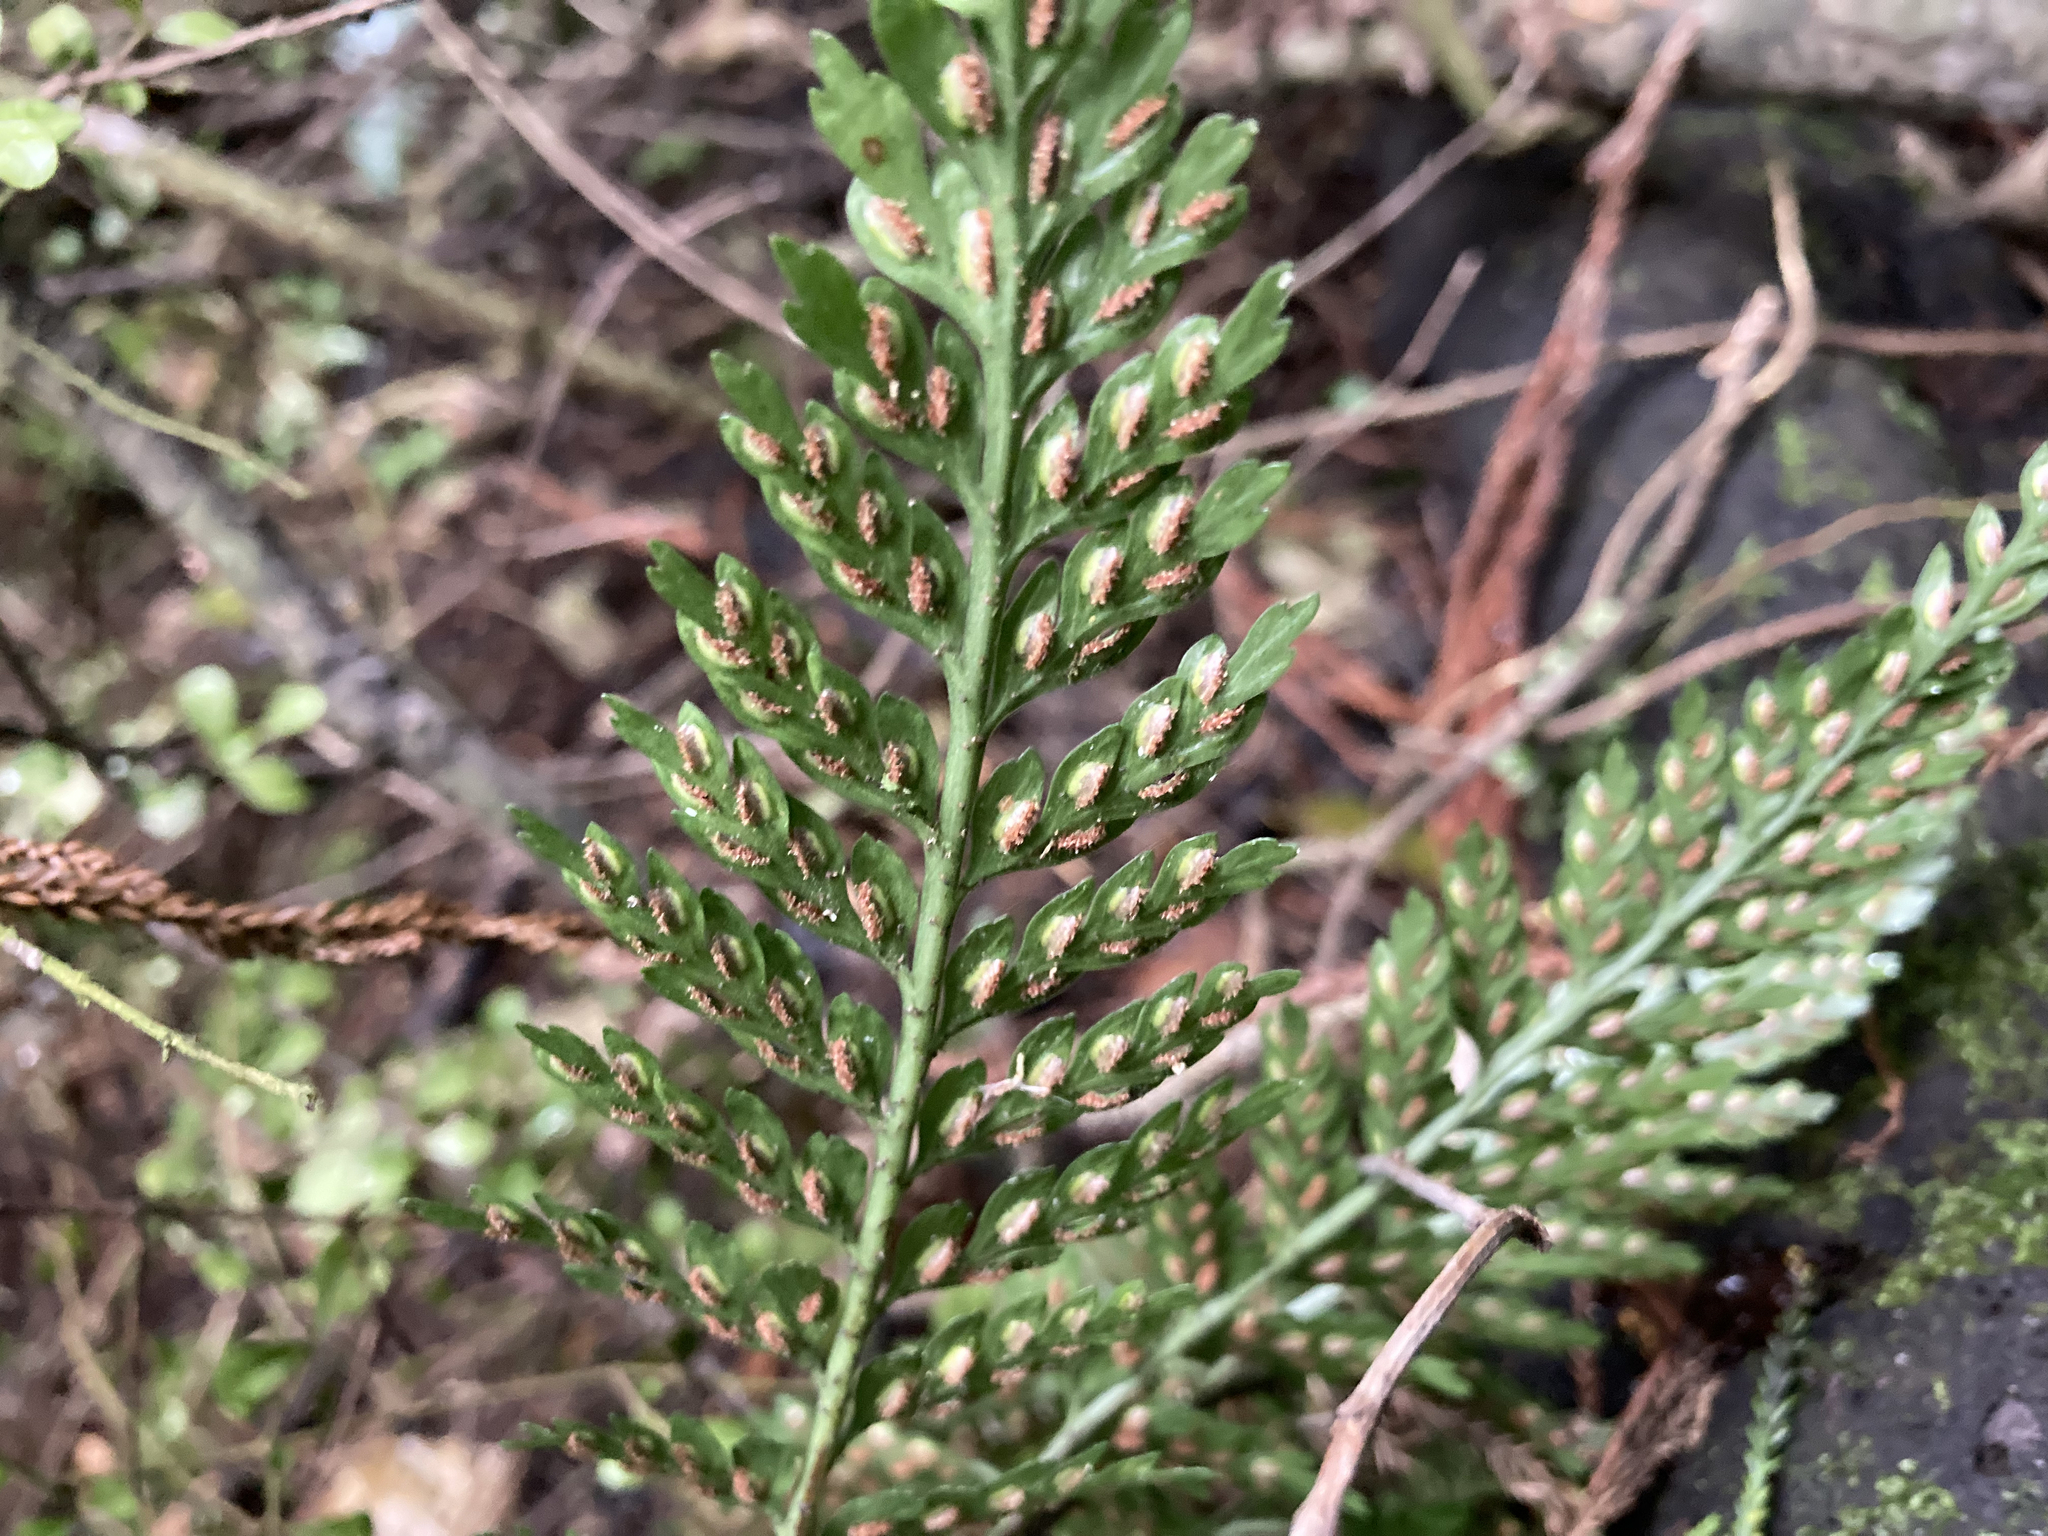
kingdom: Plantae
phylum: Tracheophyta
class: Polypodiopsida
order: Polypodiales
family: Aspleniaceae
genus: Asplenium
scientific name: Asplenium
